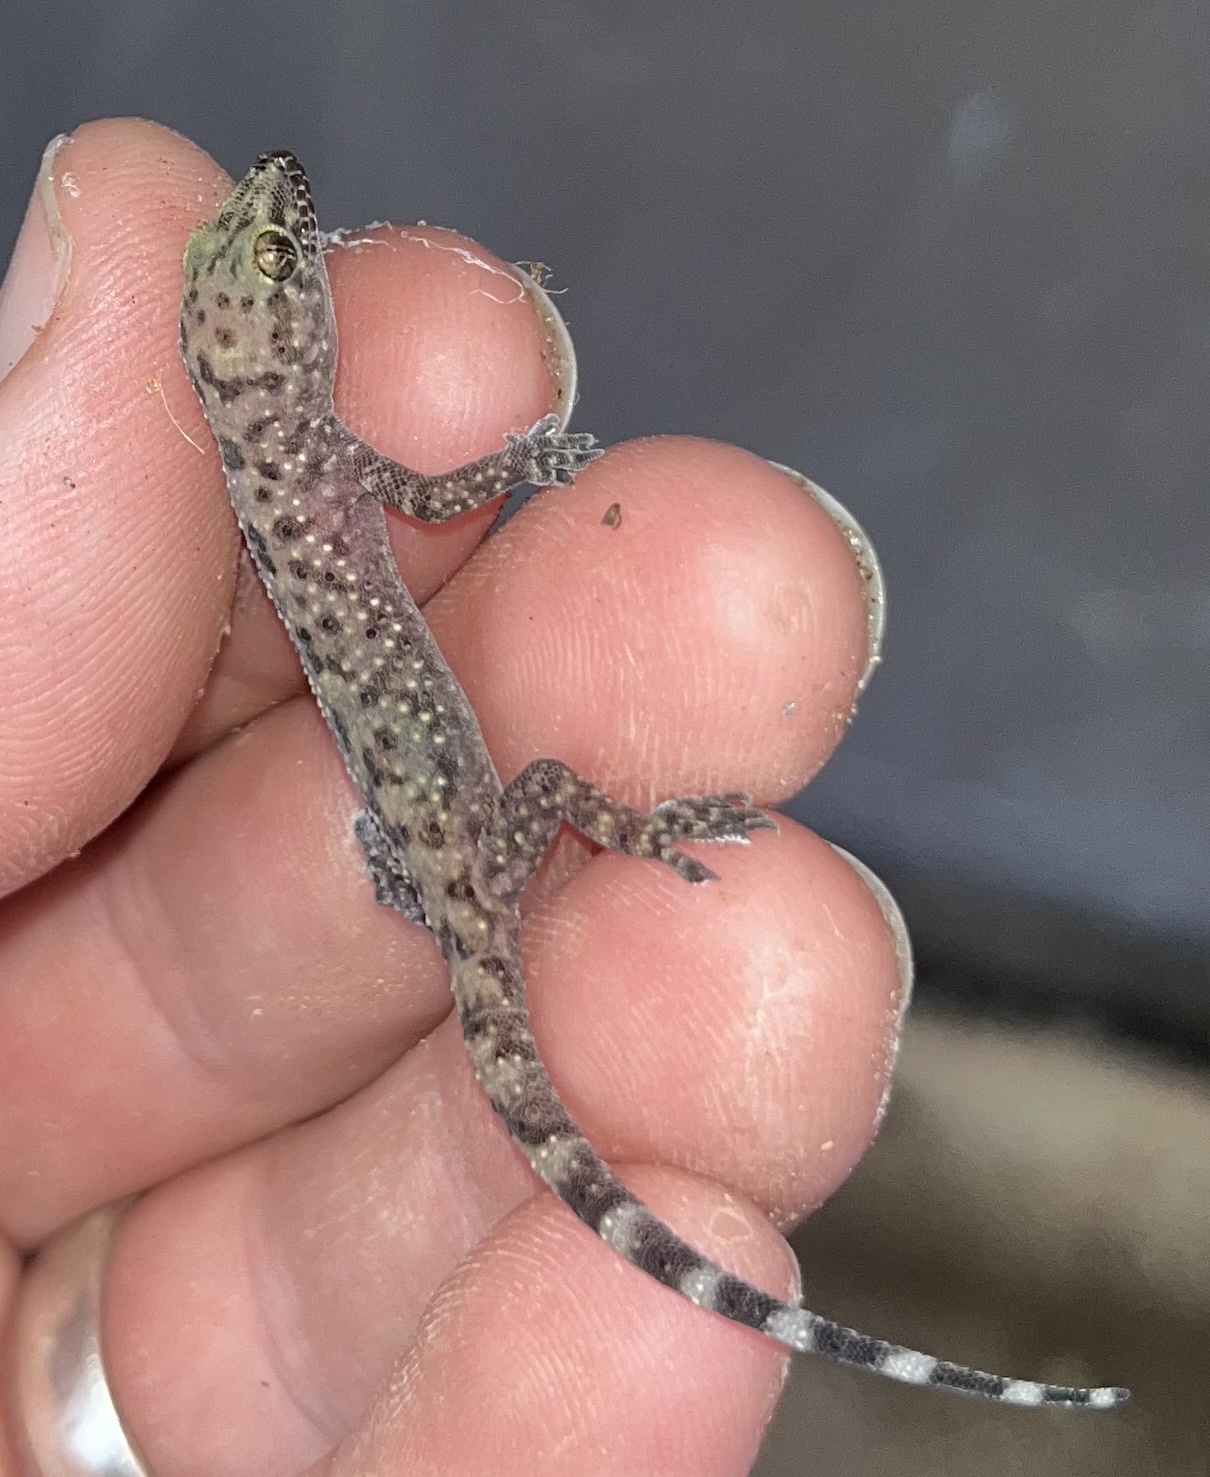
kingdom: Animalia
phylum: Chordata
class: Squamata
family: Gekkonidae
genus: Hemidactylus
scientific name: Hemidactylus turcicus
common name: Turkish gecko
